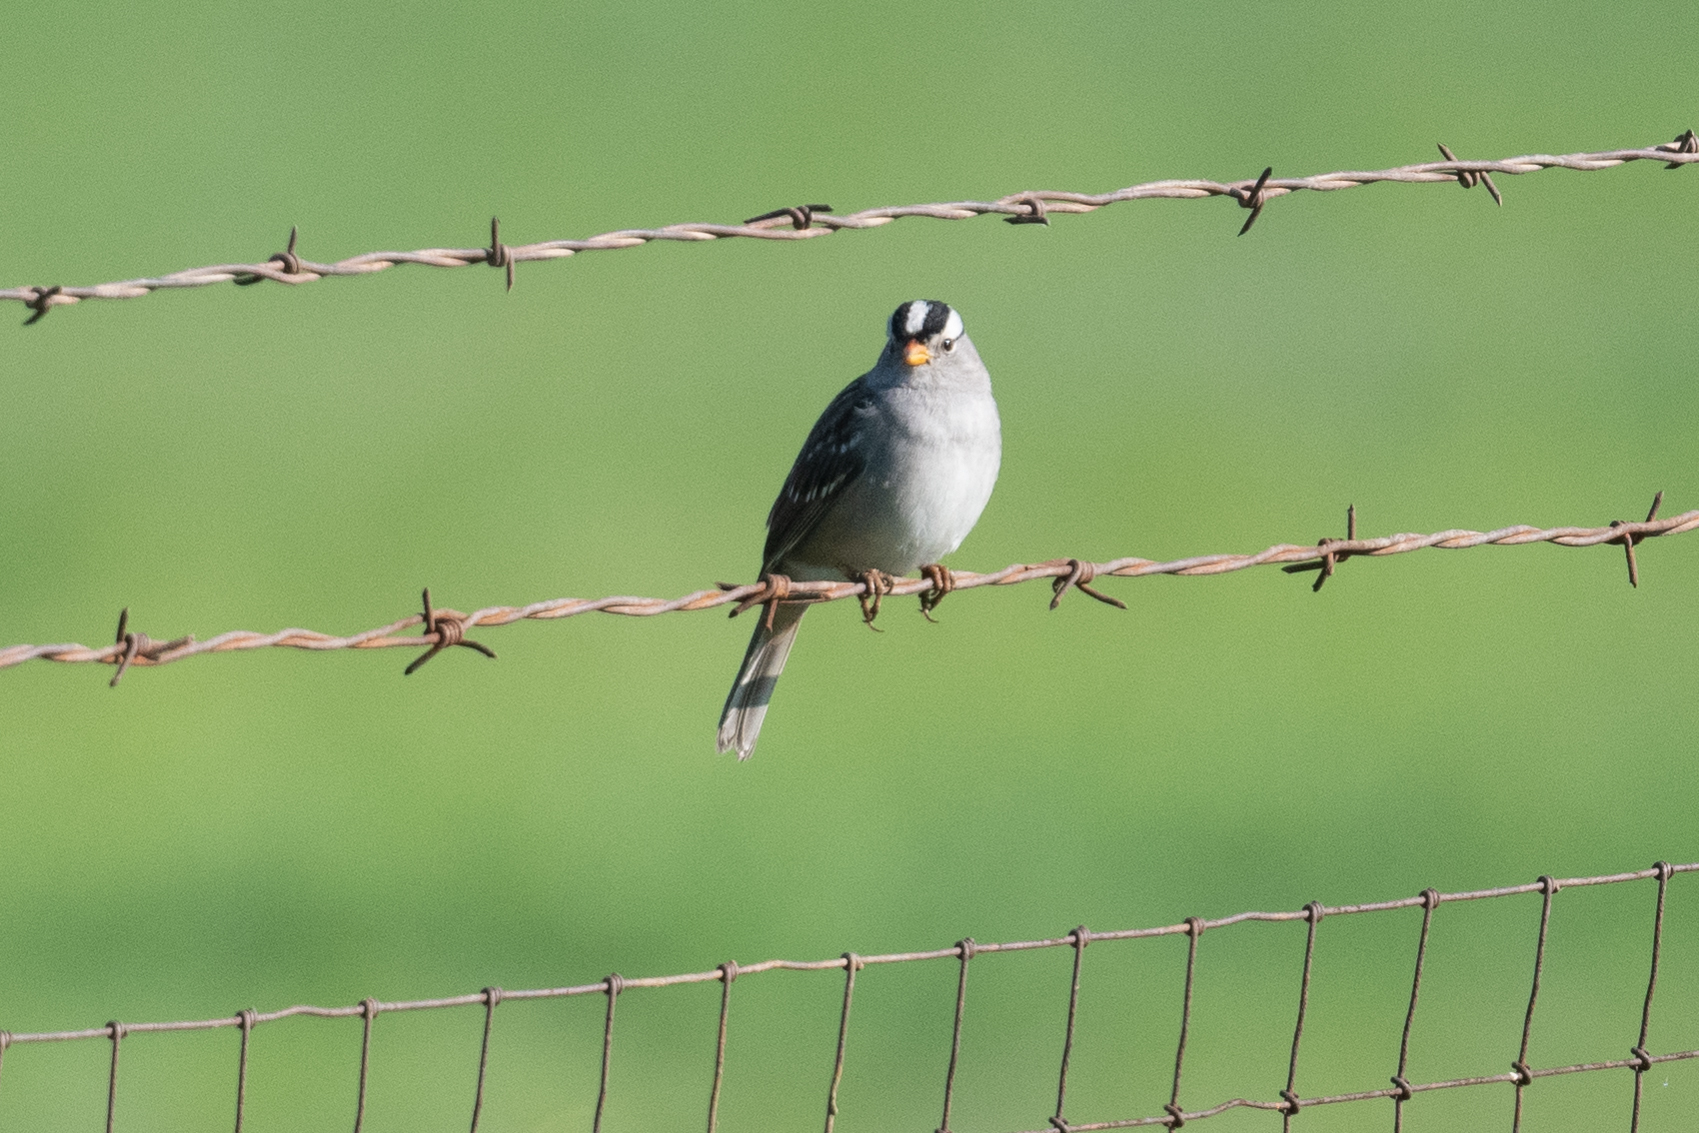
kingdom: Animalia
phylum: Chordata
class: Aves
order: Passeriformes
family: Passerellidae
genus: Zonotrichia
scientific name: Zonotrichia leucophrys
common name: White-crowned sparrow
